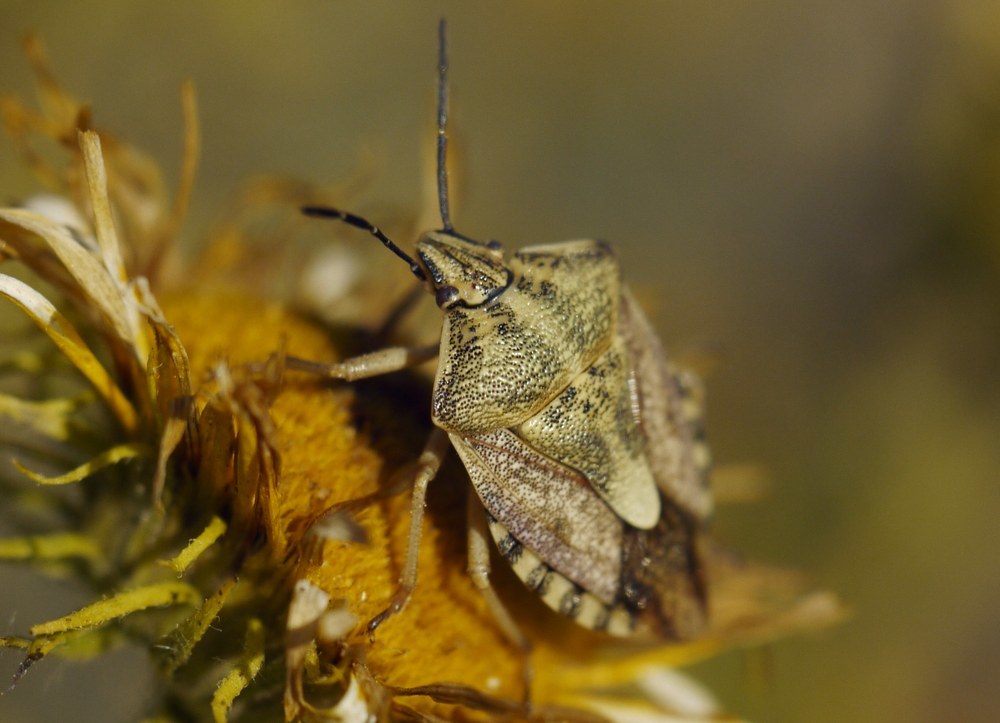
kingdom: Animalia
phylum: Arthropoda
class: Insecta
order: Hemiptera
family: Pentatomidae
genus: Carpocoris
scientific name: Carpocoris purpureipennis
